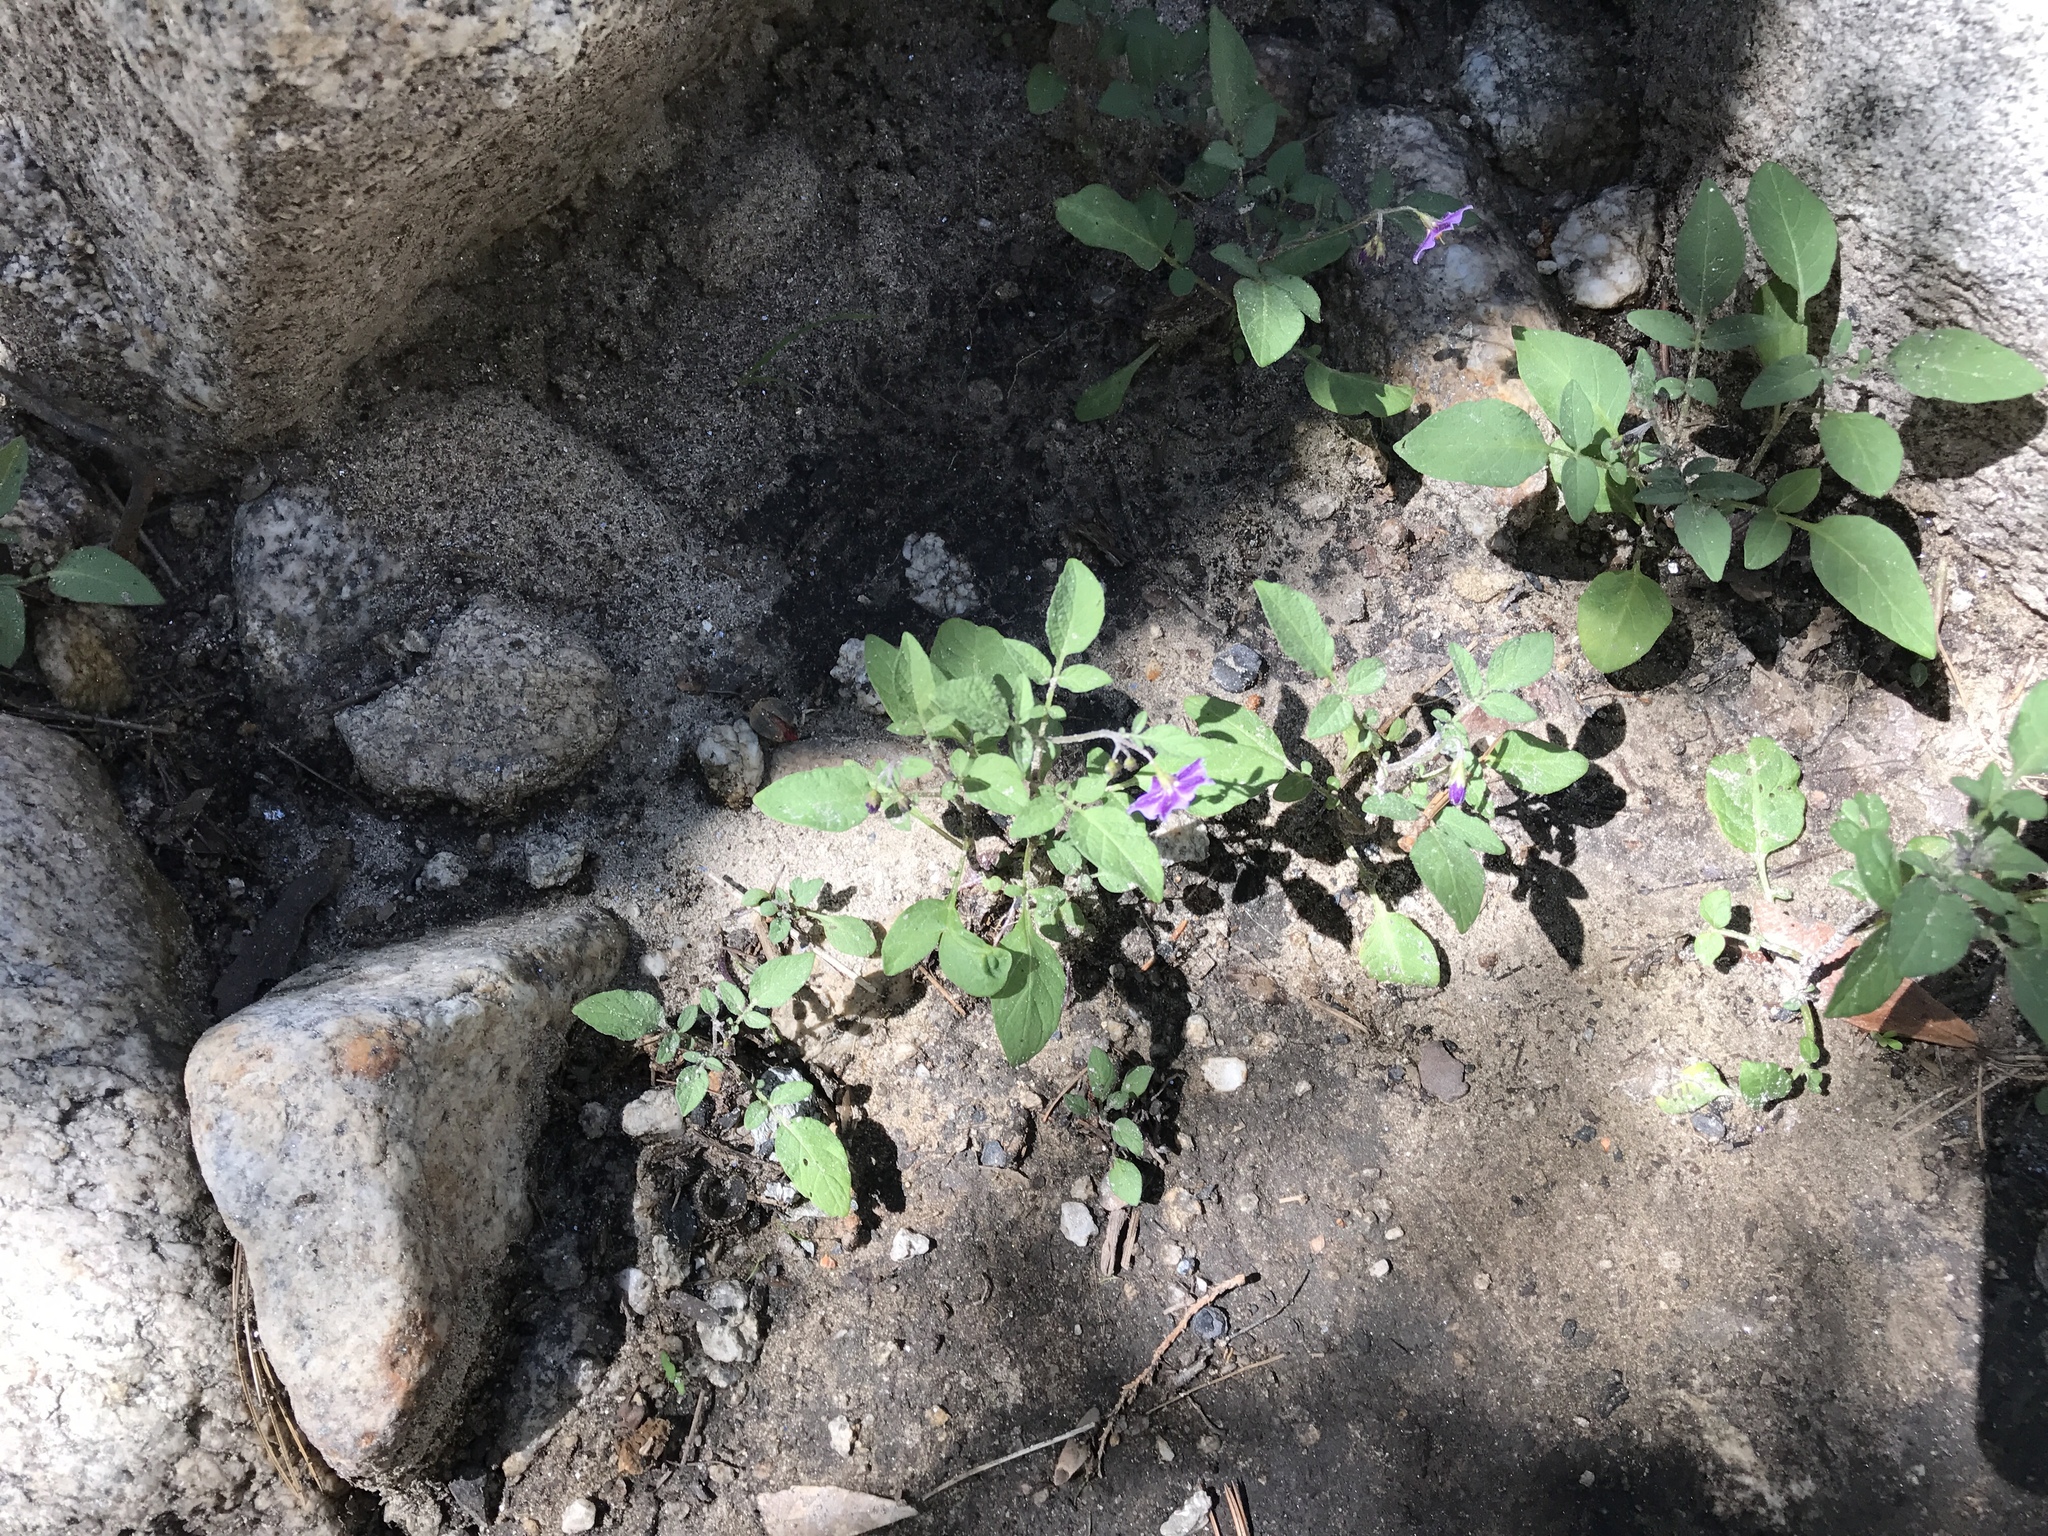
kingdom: Plantae
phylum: Tracheophyta
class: Magnoliopsida
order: Solanales
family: Solanaceae
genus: Solanum
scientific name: Solanum stoloniferum
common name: Fendler's nighshade
